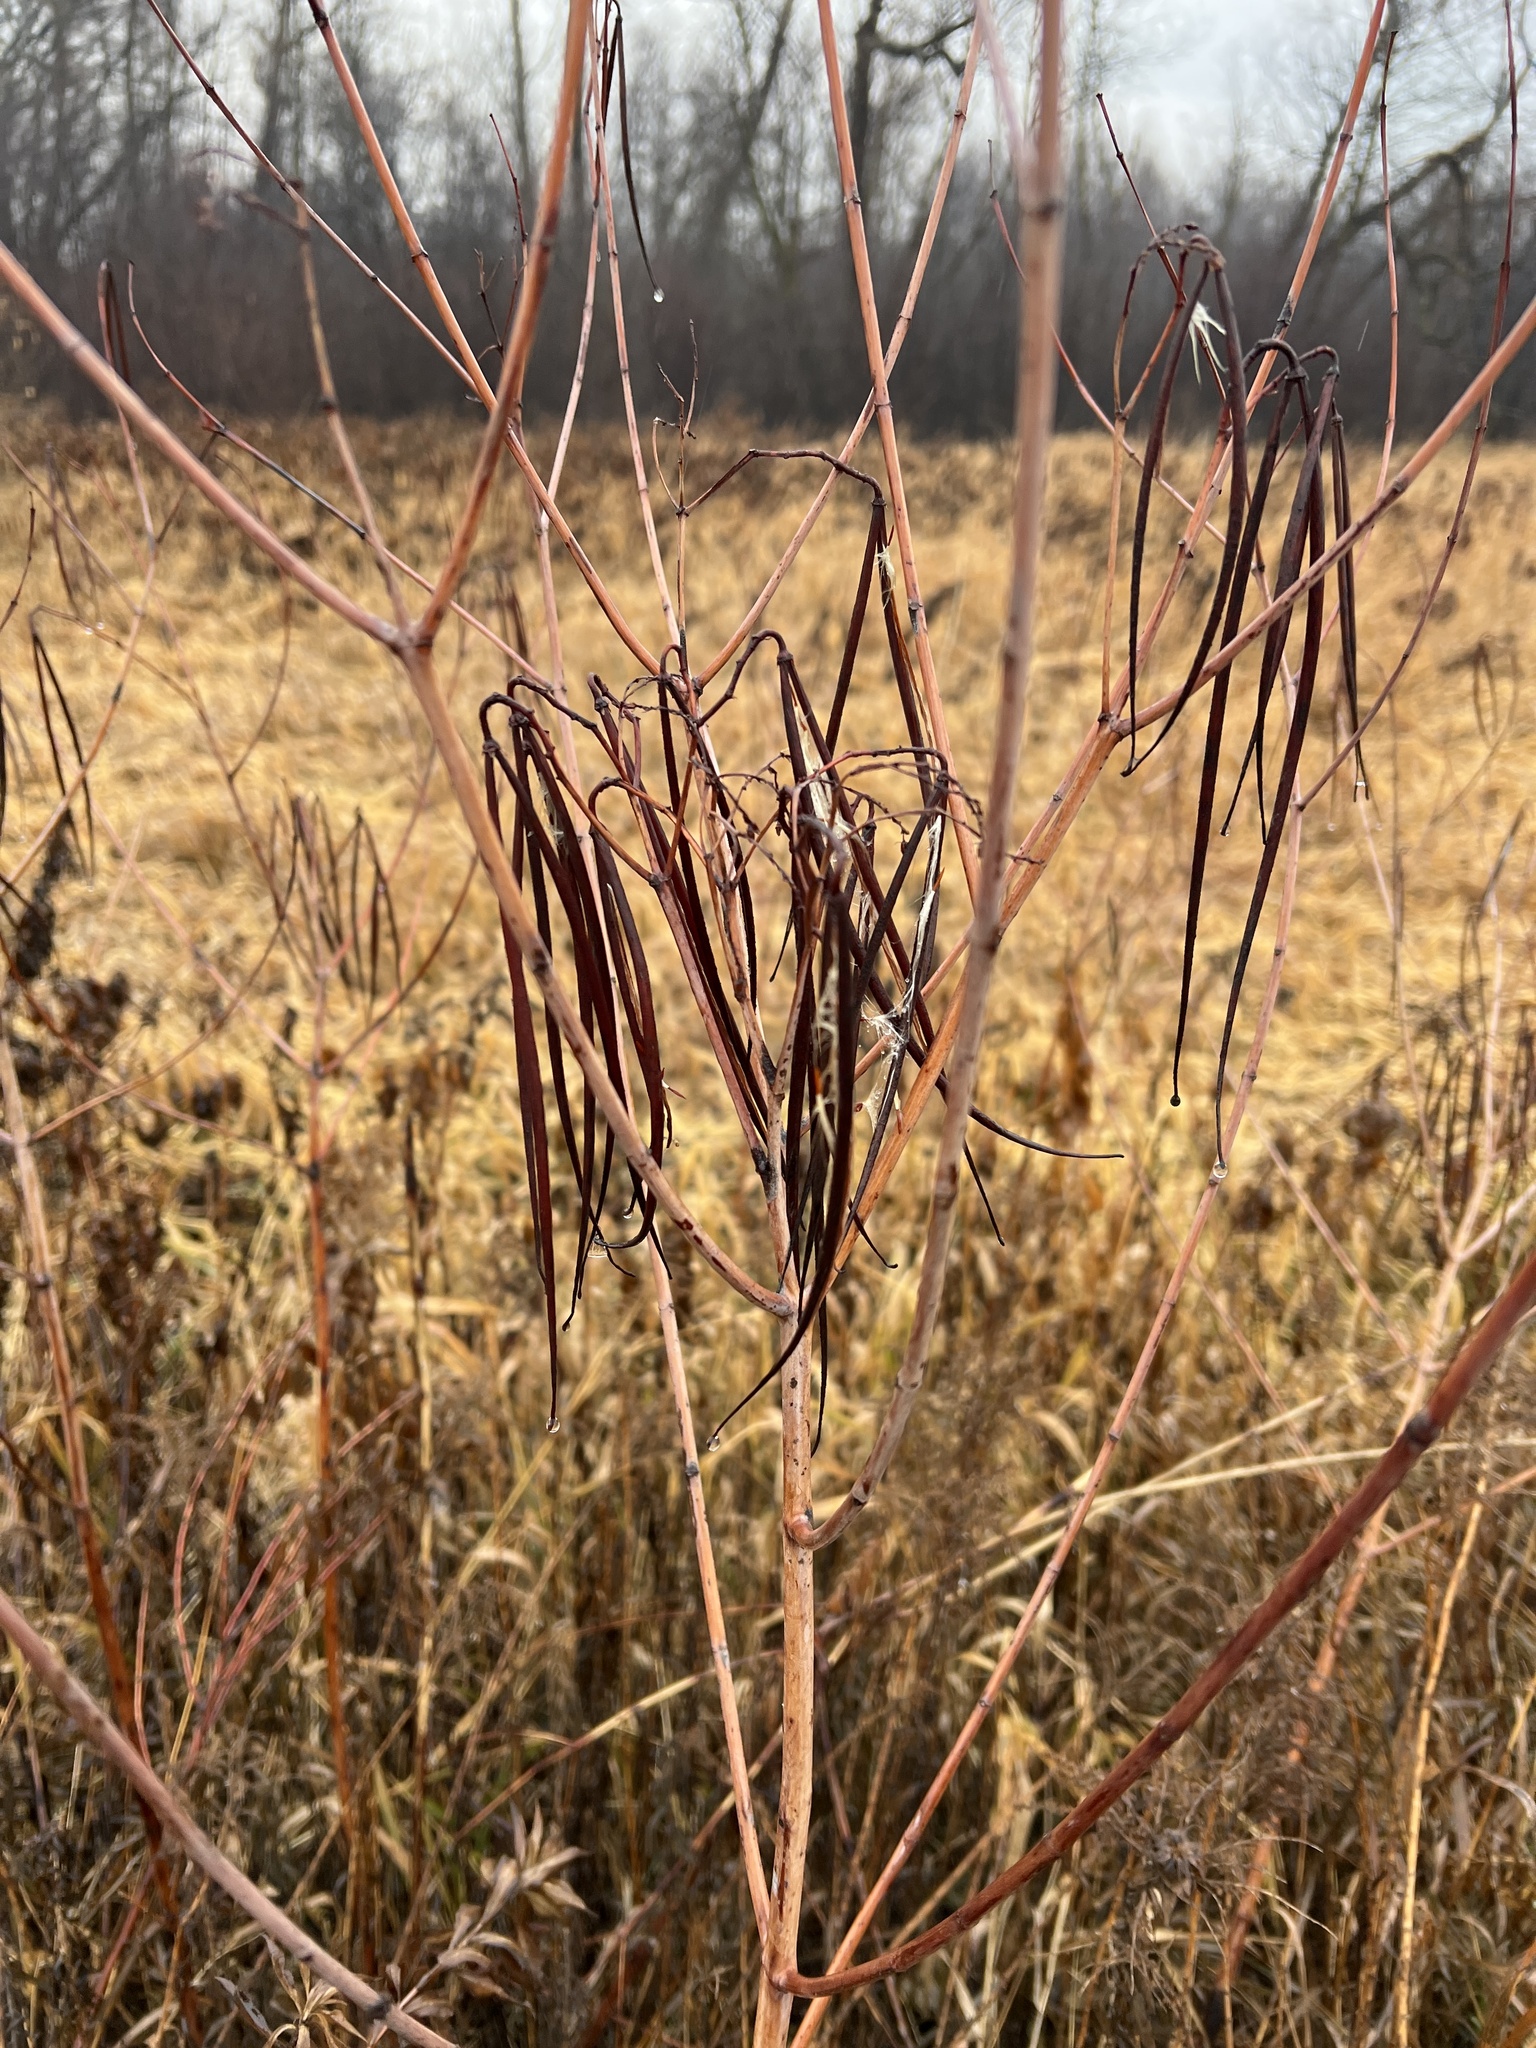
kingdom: Plantae
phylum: Tracheophyta
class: Magnoliopsida
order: Gentianales
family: Apocynaceae
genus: Apocynum
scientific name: Apocynum cannabinum
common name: Hemp dogbane
